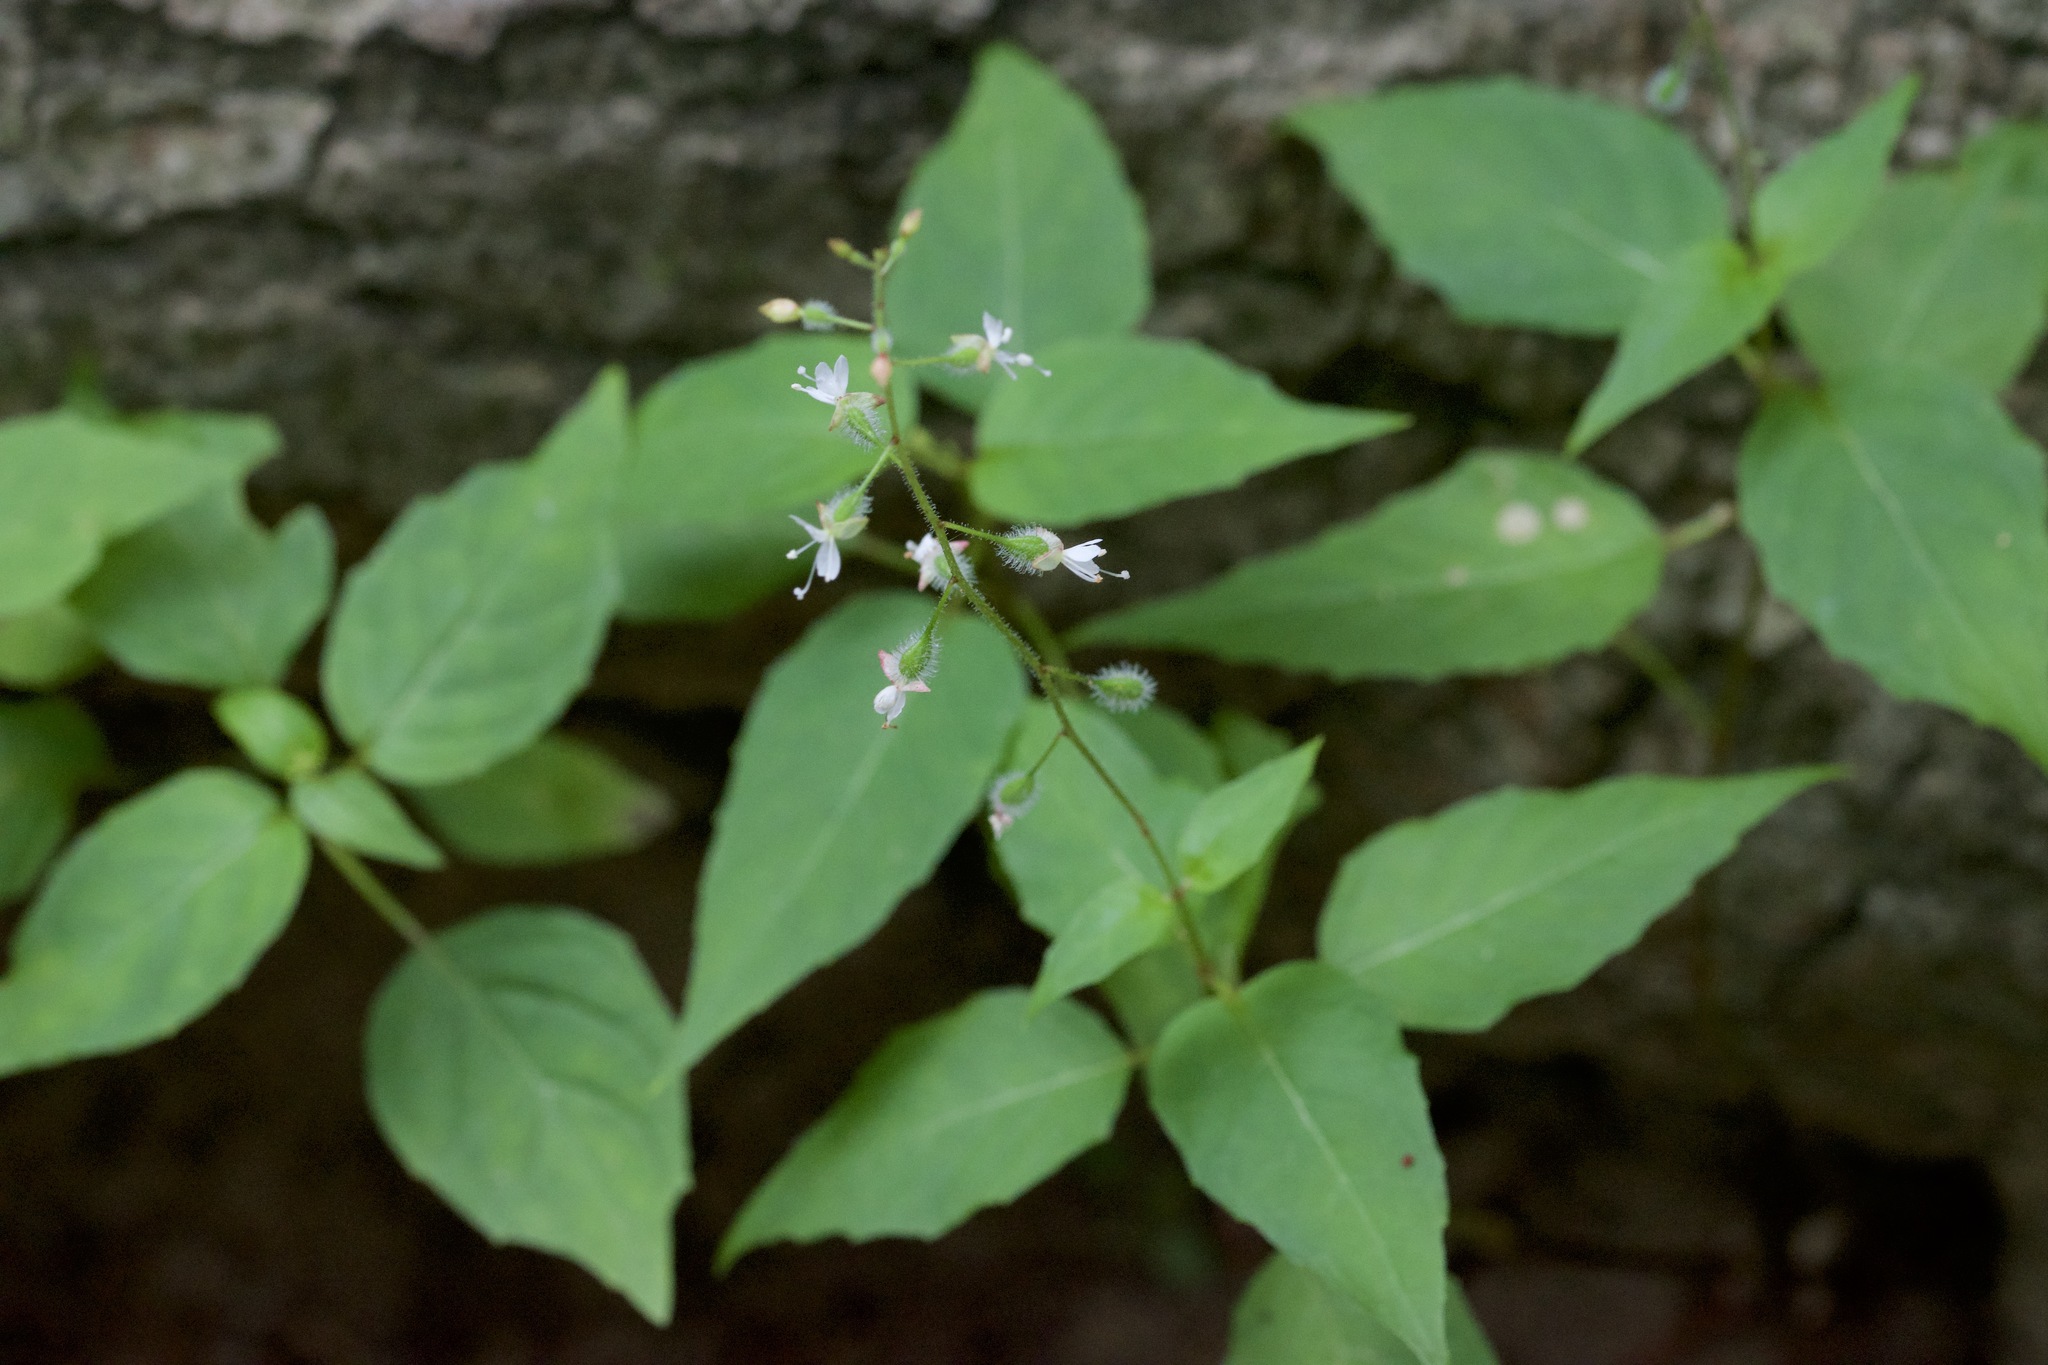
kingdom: Plantae
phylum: Tracheophyta
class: Magnoliopsida
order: Myrtales
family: Onagraceae
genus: Circaea
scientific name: Circaea canadensis
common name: Broad-leaved enchanter's nightshade
